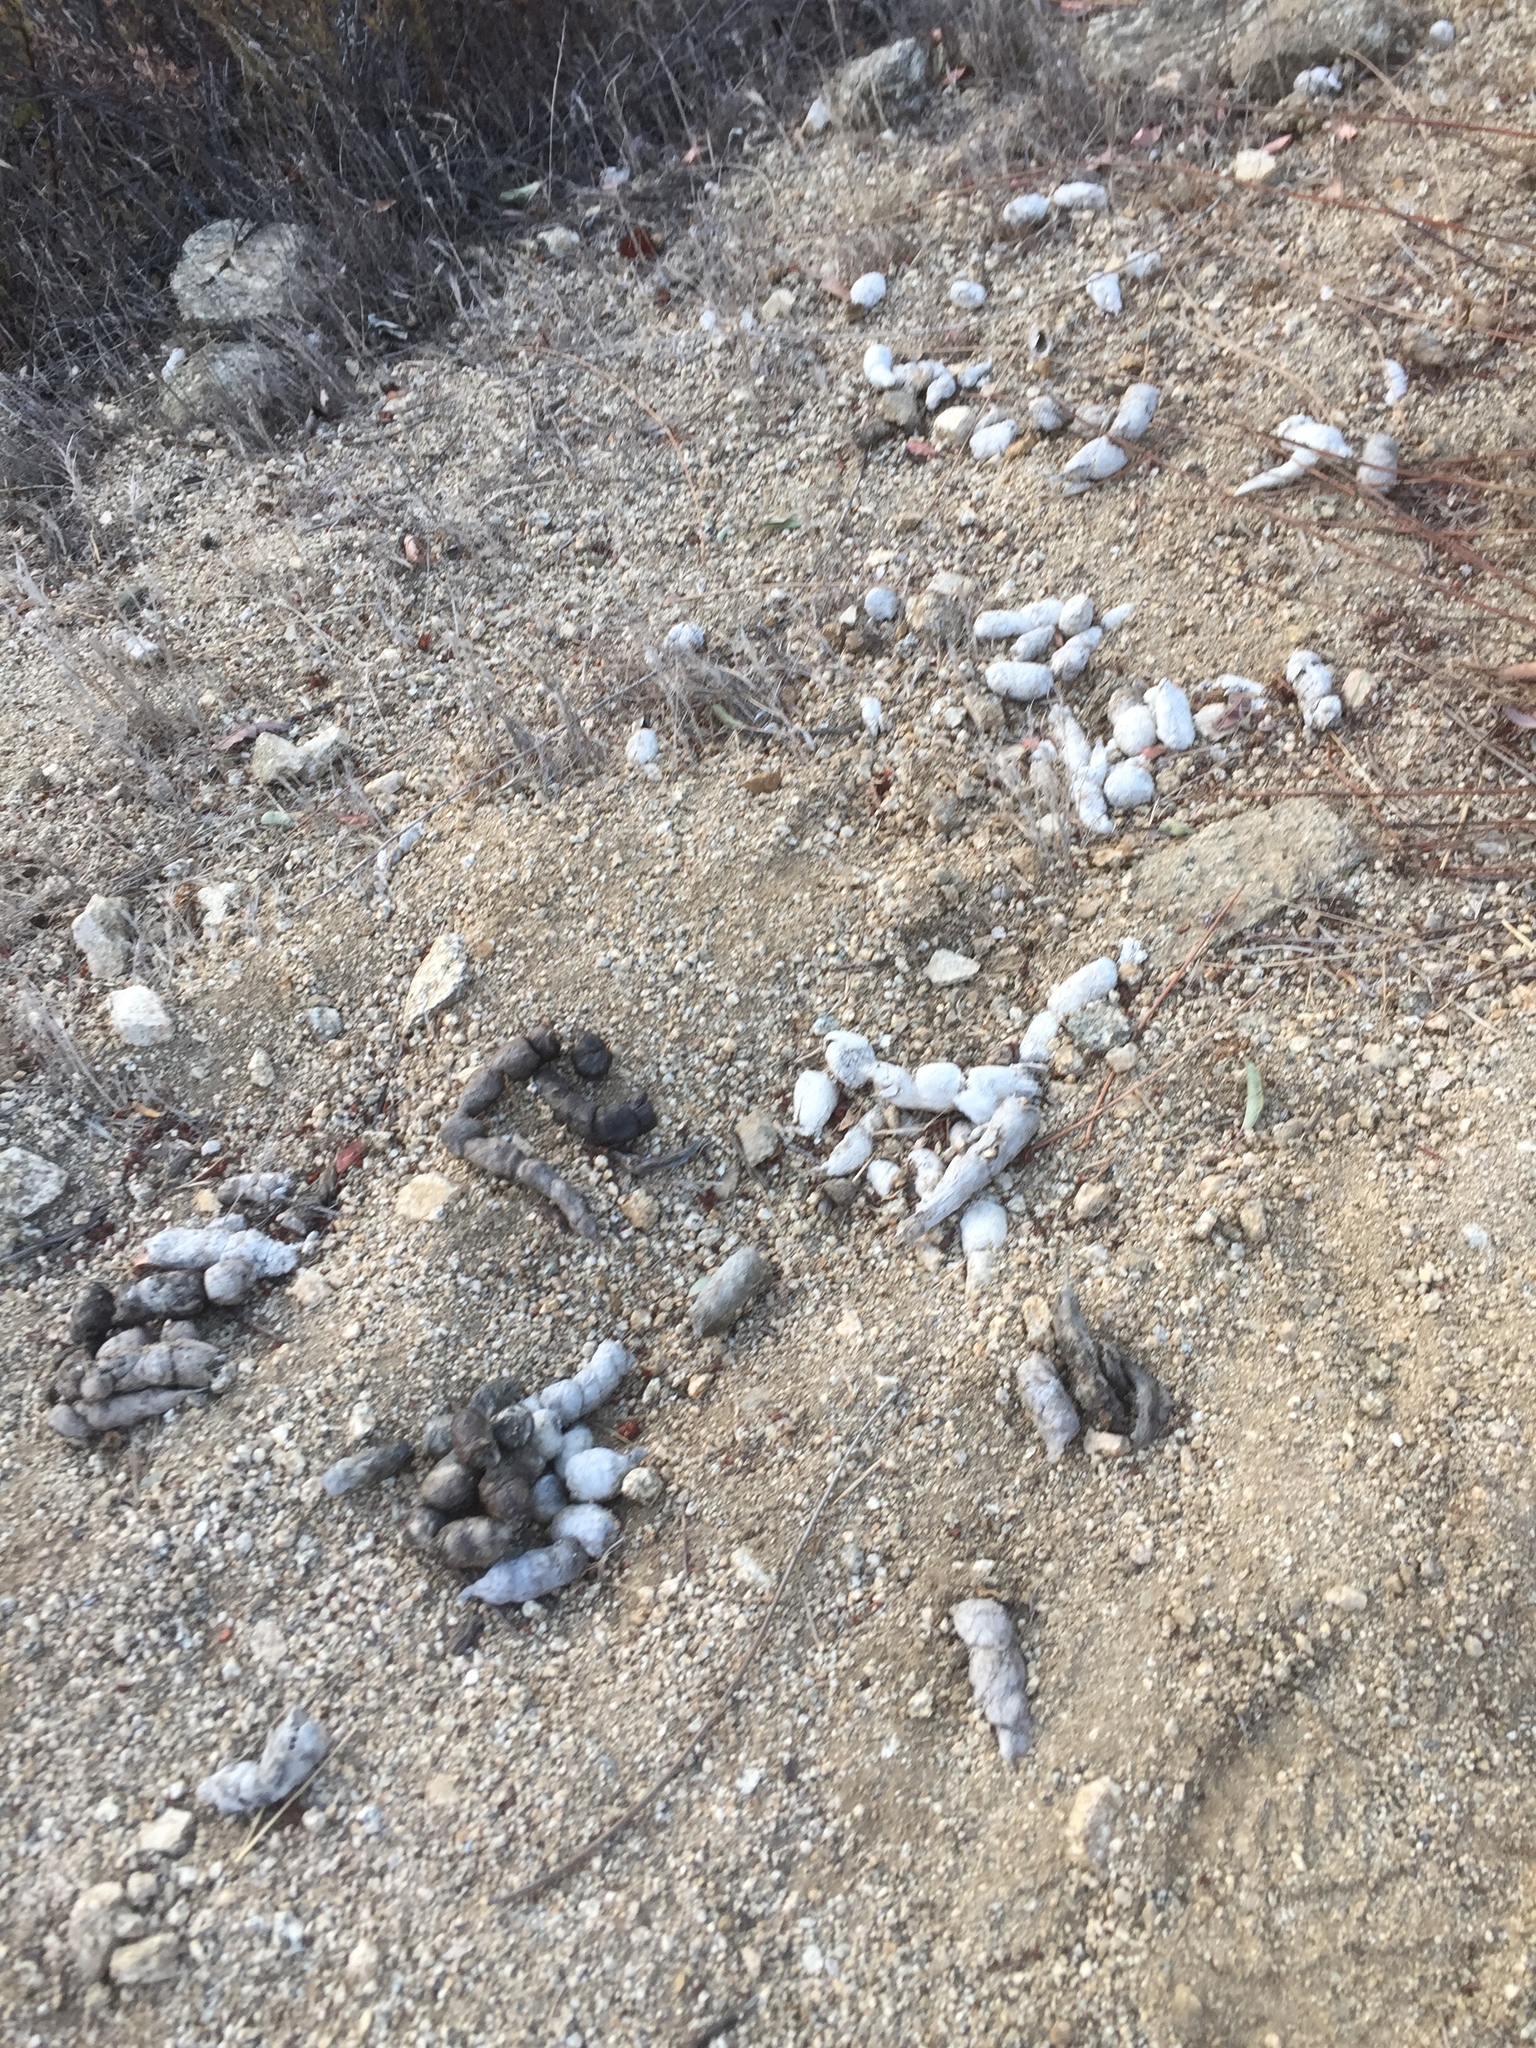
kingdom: Animalia
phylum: Chordata
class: Mammalia
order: Carnivora
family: Felidae
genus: Lynx
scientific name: Lynx rufus
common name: Bobcat
